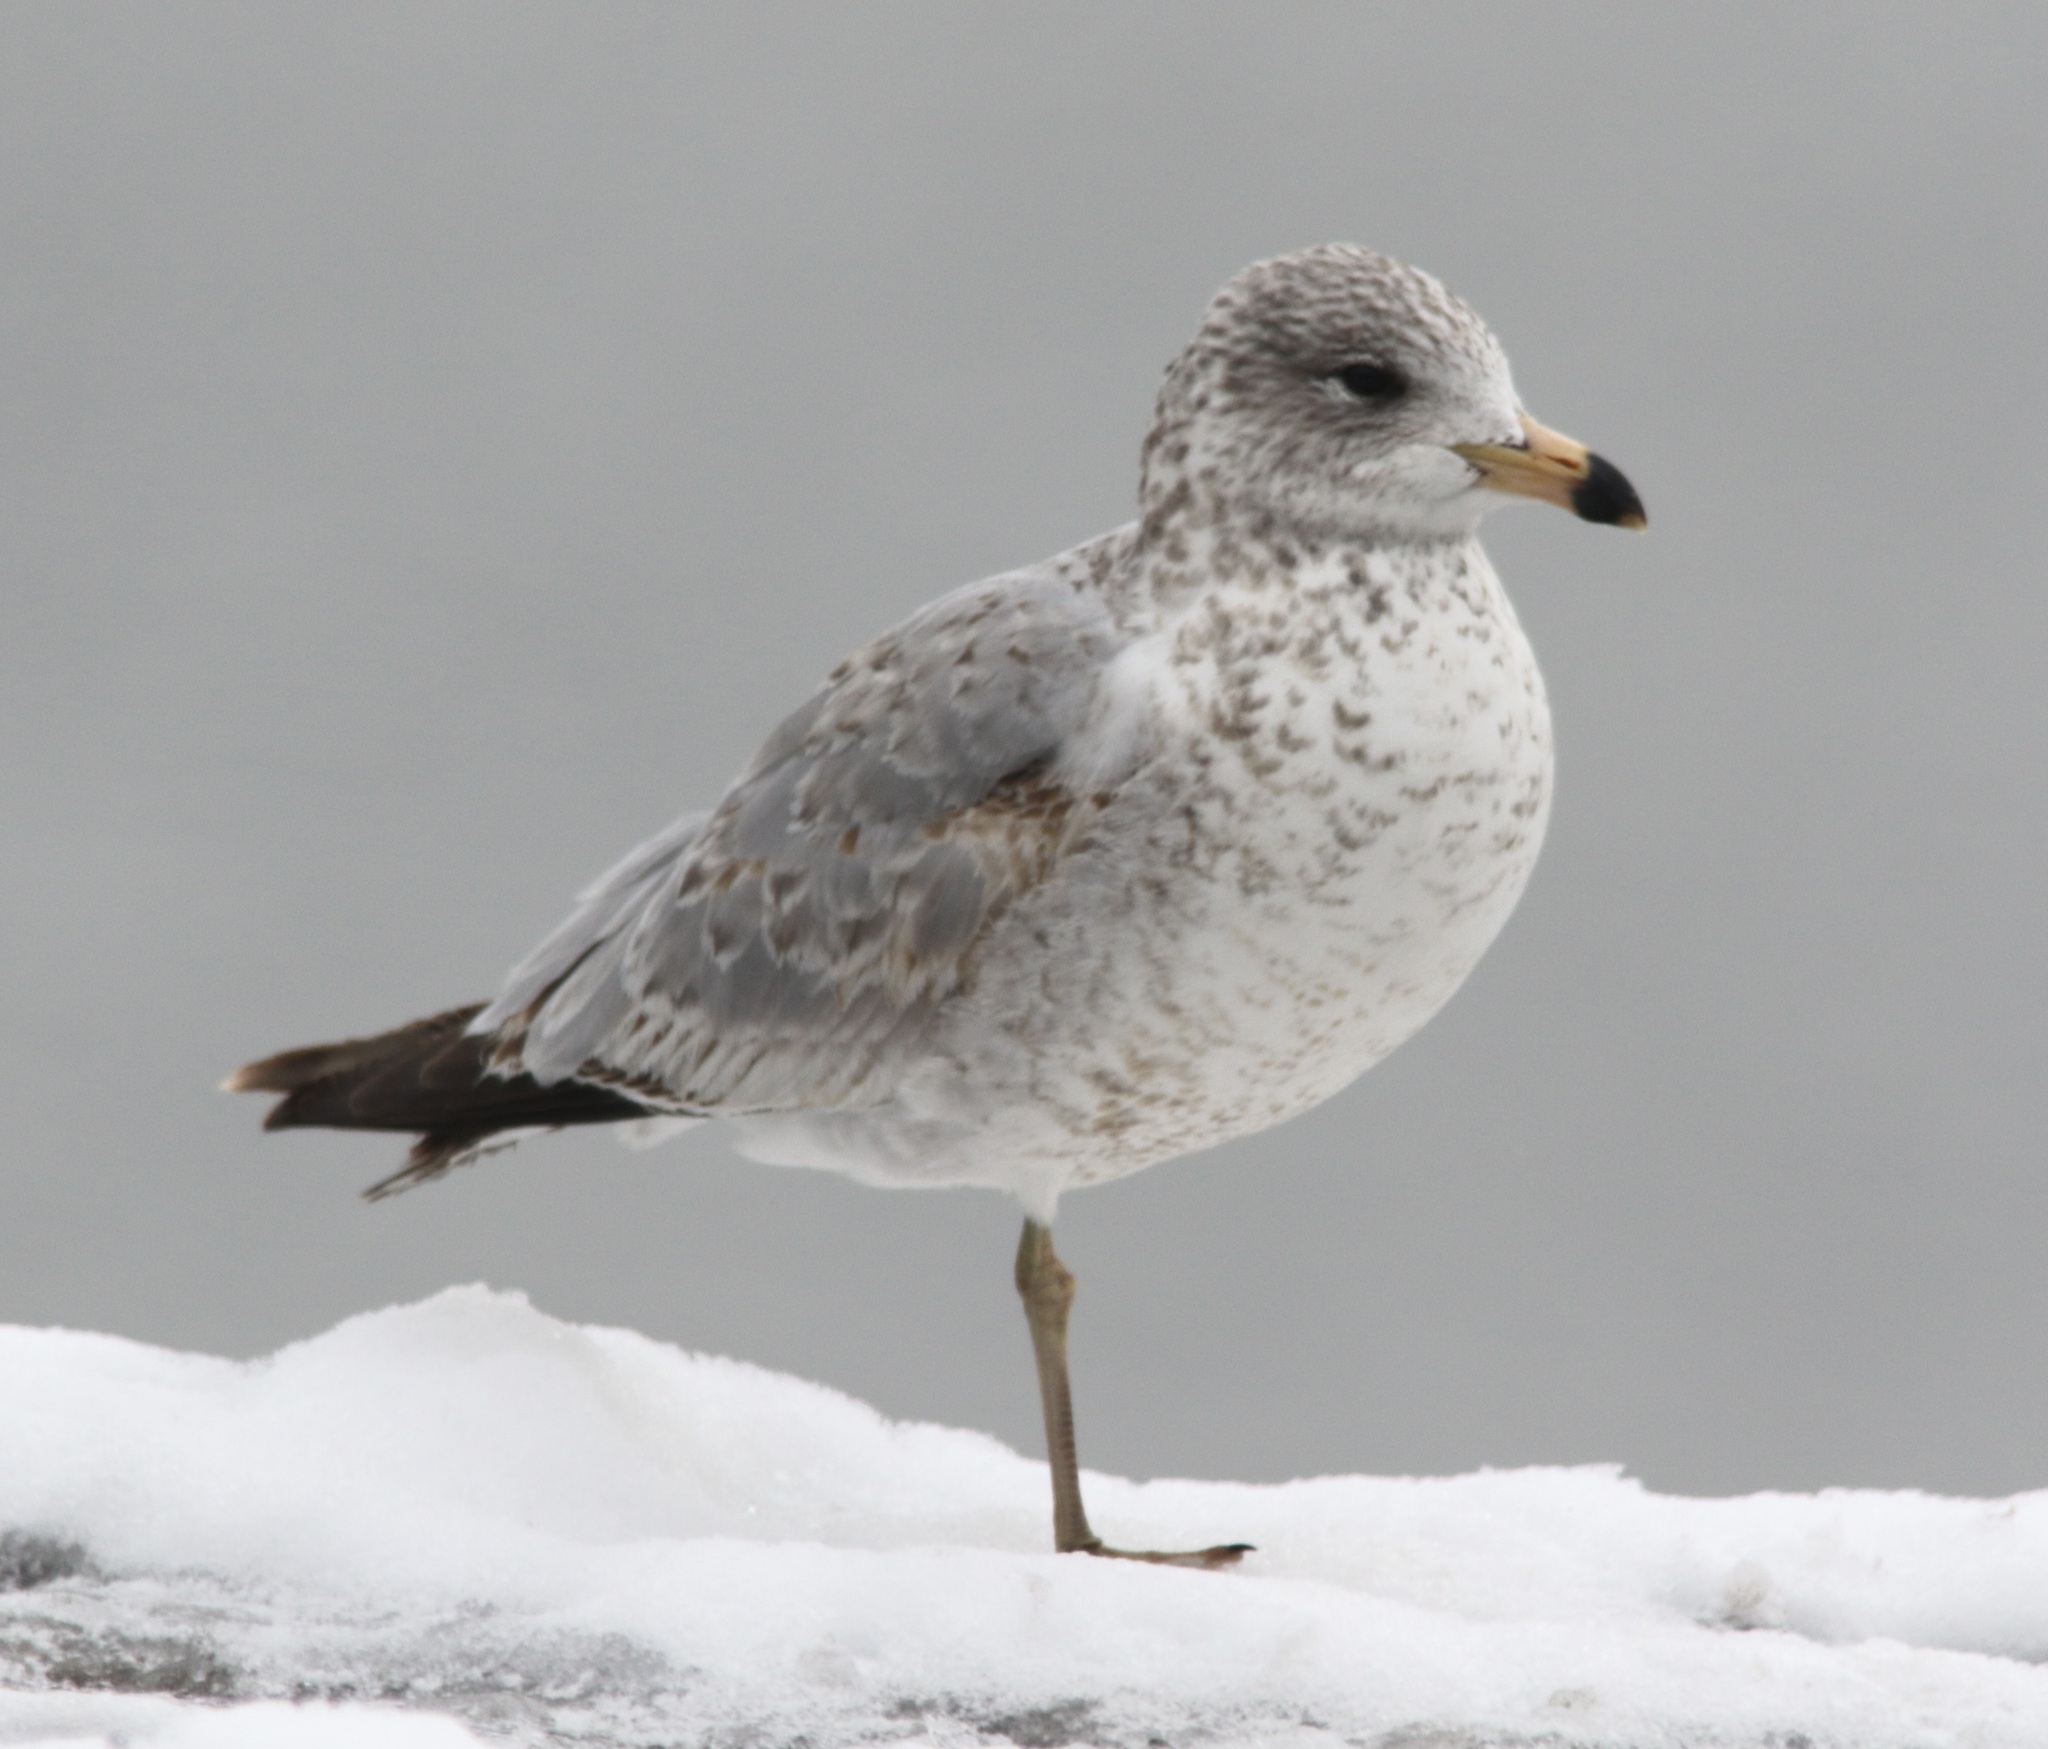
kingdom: Animalia
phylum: Chordata
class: Aves
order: Charadriiformes
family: Laridae
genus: Larus
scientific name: Larus delawarensis
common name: Ring-billed gull
